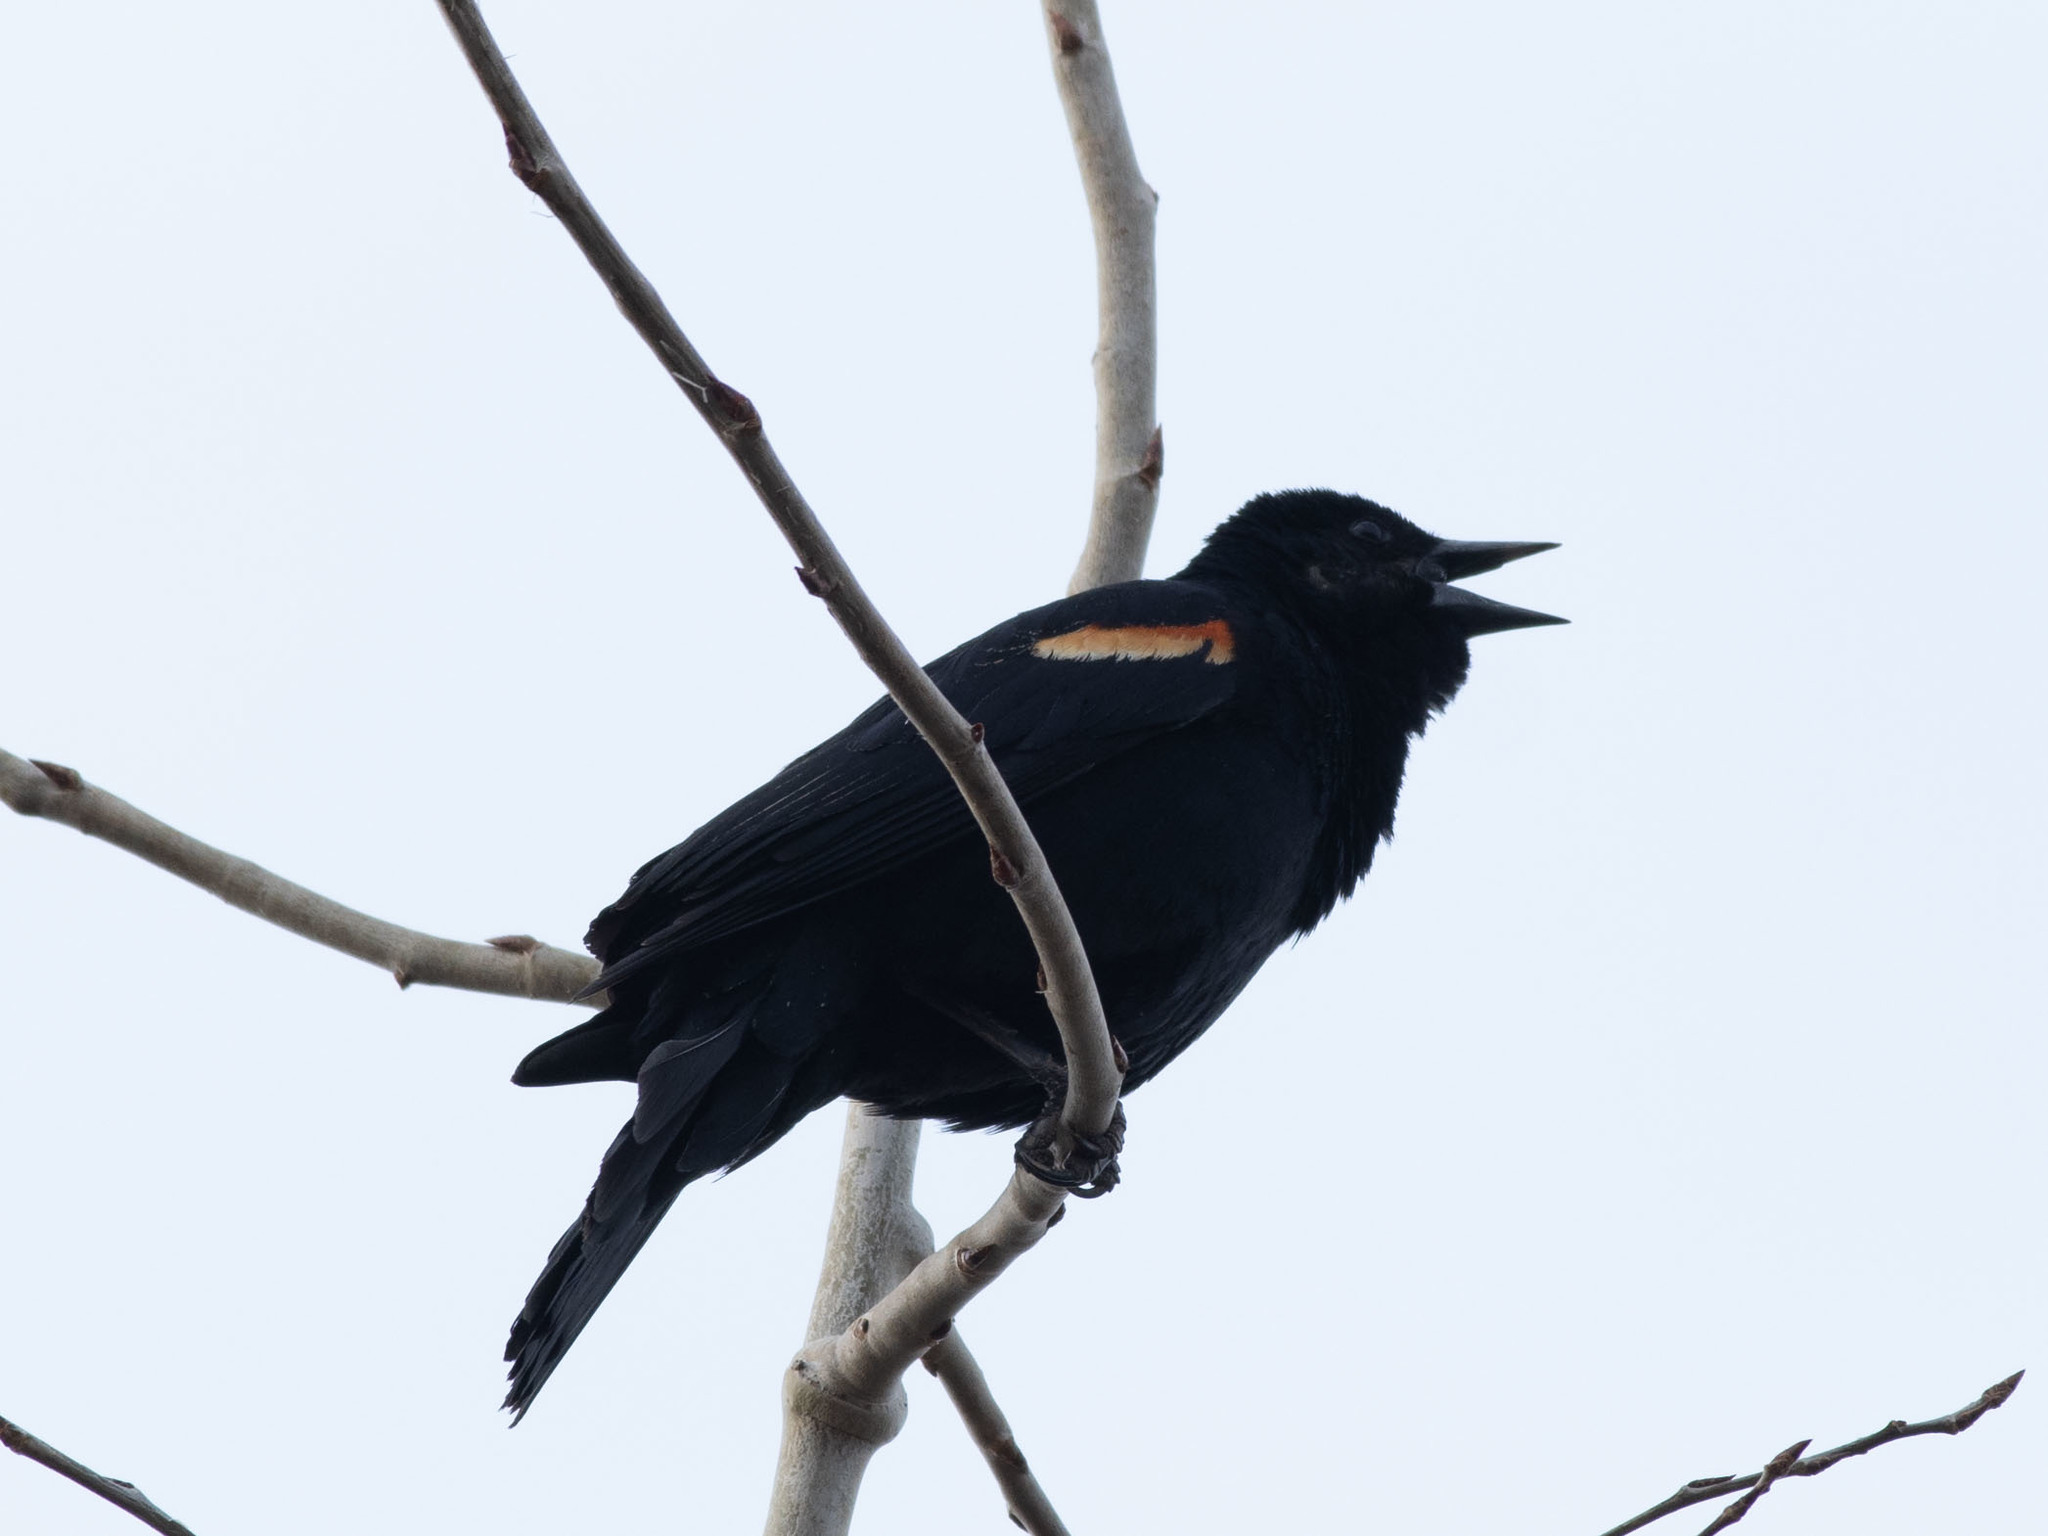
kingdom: Animalia
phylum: Chordata
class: Aves
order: Passeriformes
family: Icteridae
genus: Agelaius
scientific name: Agelaius phoeniceus
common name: Red-winged blackbird
